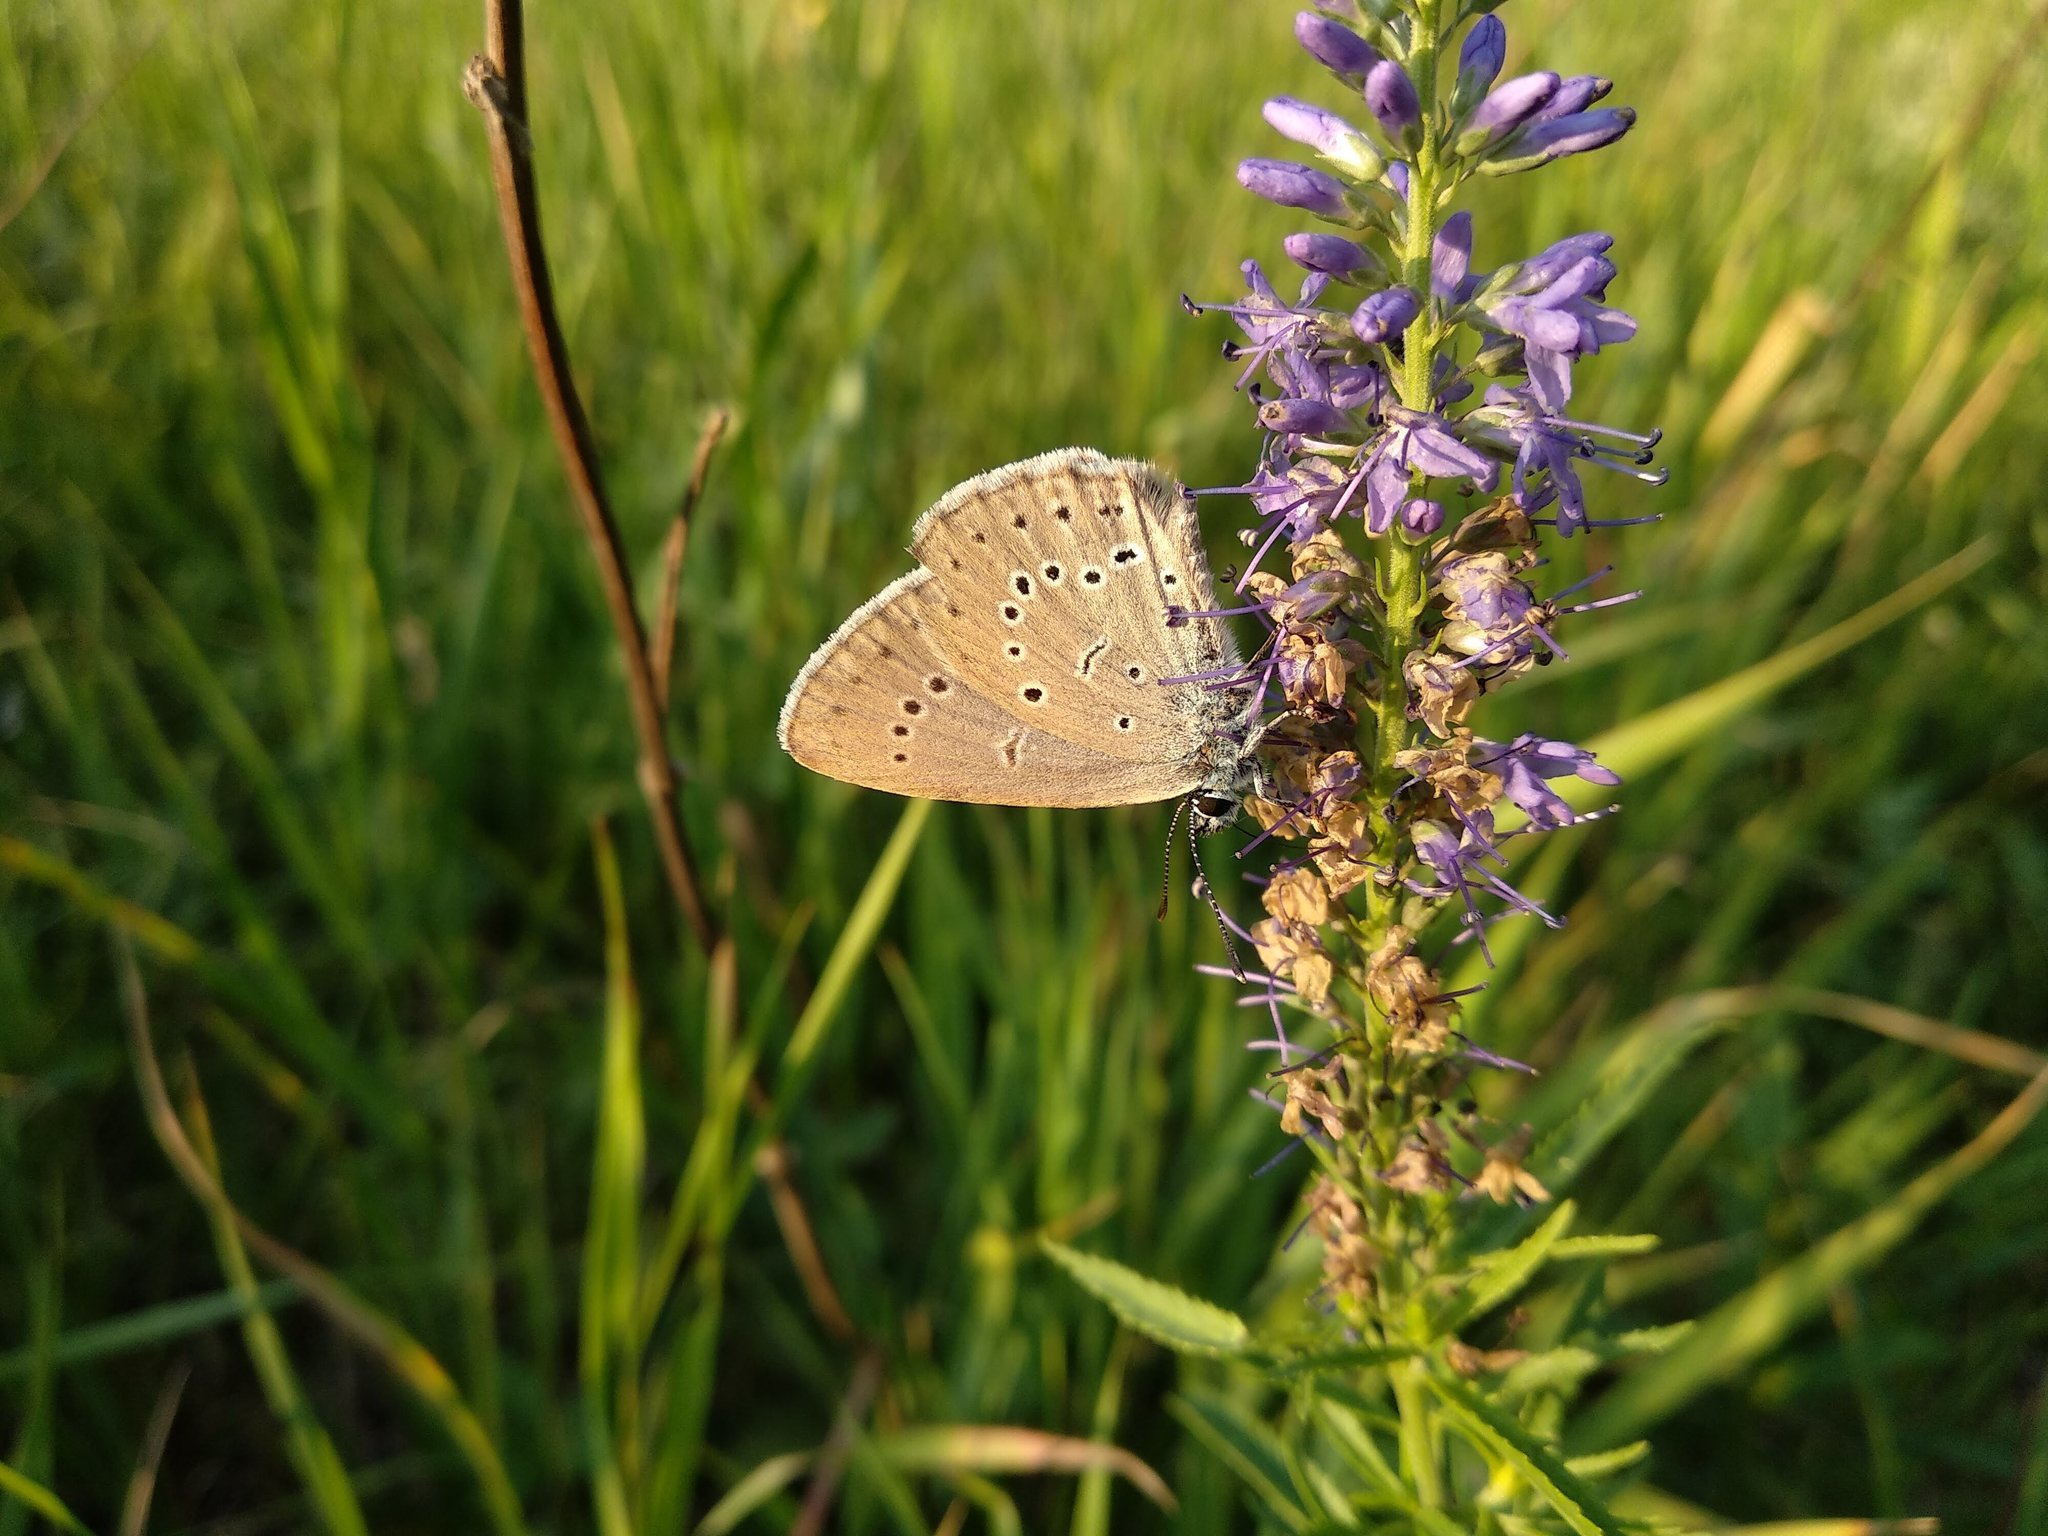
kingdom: Animalia
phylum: Arthropoda
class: Insecta
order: Lepidoptera
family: Lycaenidae
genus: Phengaris
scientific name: Phengaris teleius
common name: Scarce large blue
